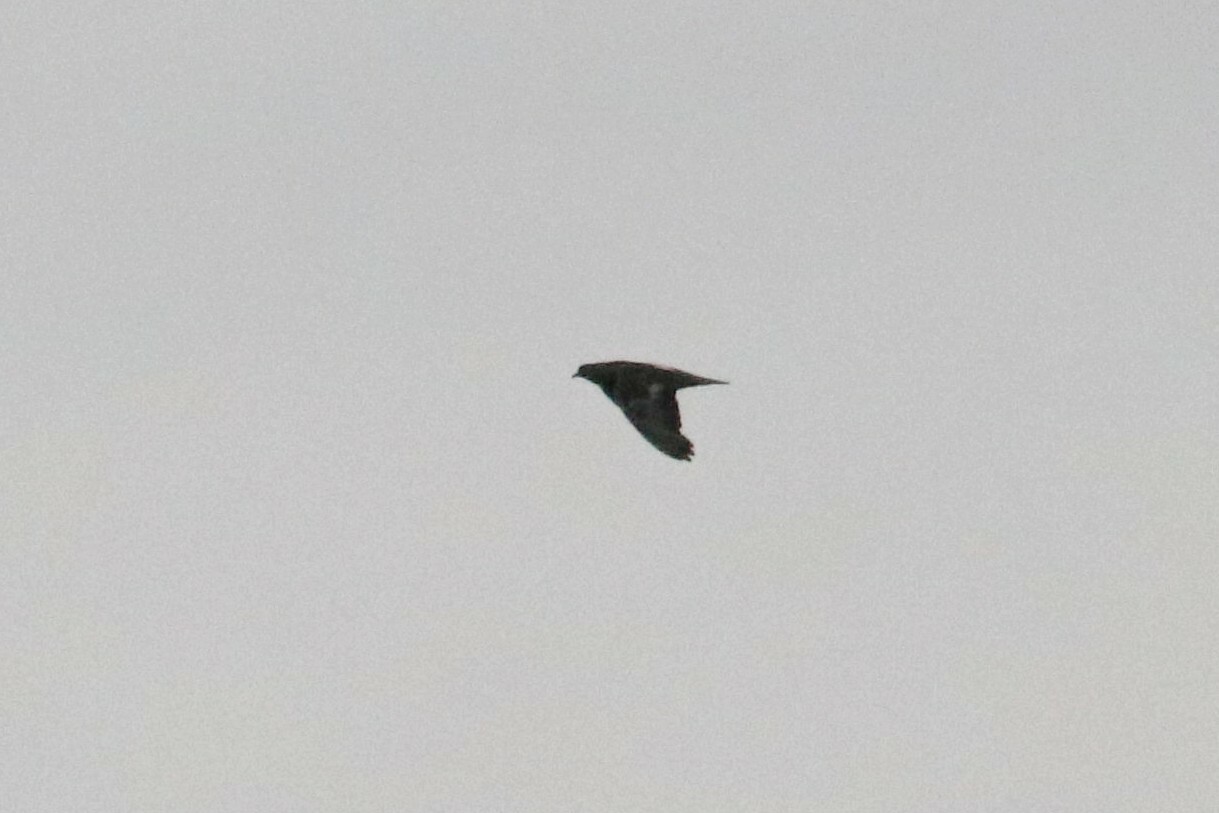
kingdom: Animalia
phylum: Chordata
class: Aves
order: Columbiformes
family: Columbidae
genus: Columba
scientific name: Columba livia
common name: Rock pigeon
